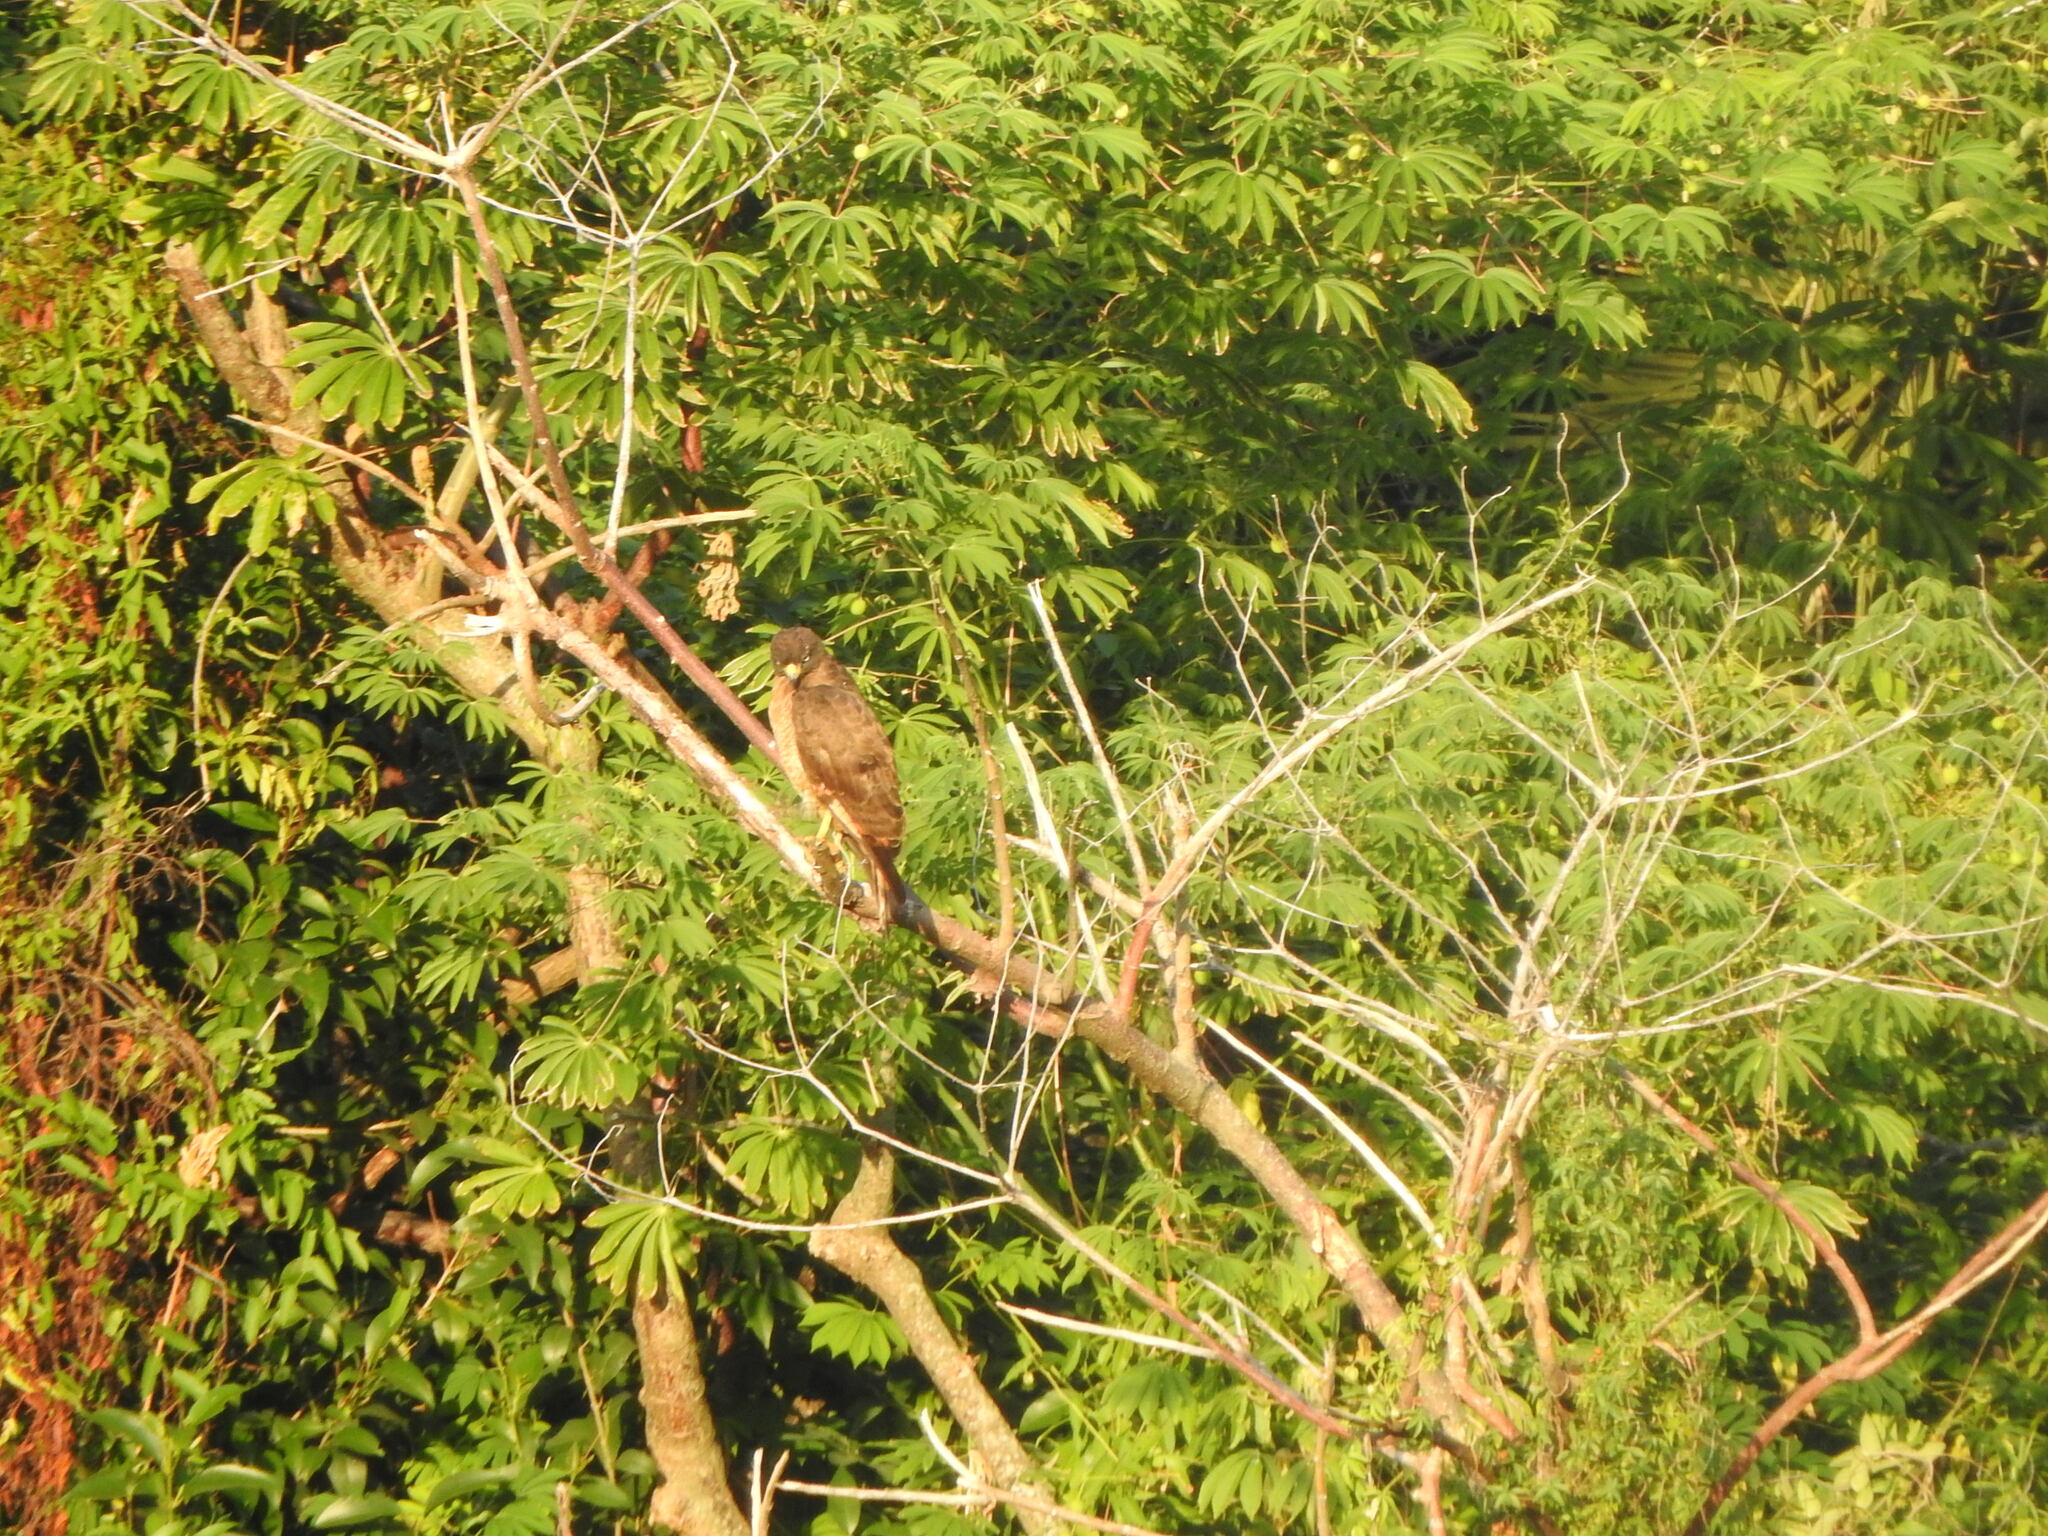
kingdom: Animalia
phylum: Chordata
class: Aves
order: Accipitriformes
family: Accipitridae
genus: Rupornis
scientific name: Rupornis magnirostris
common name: Roadside hawk
